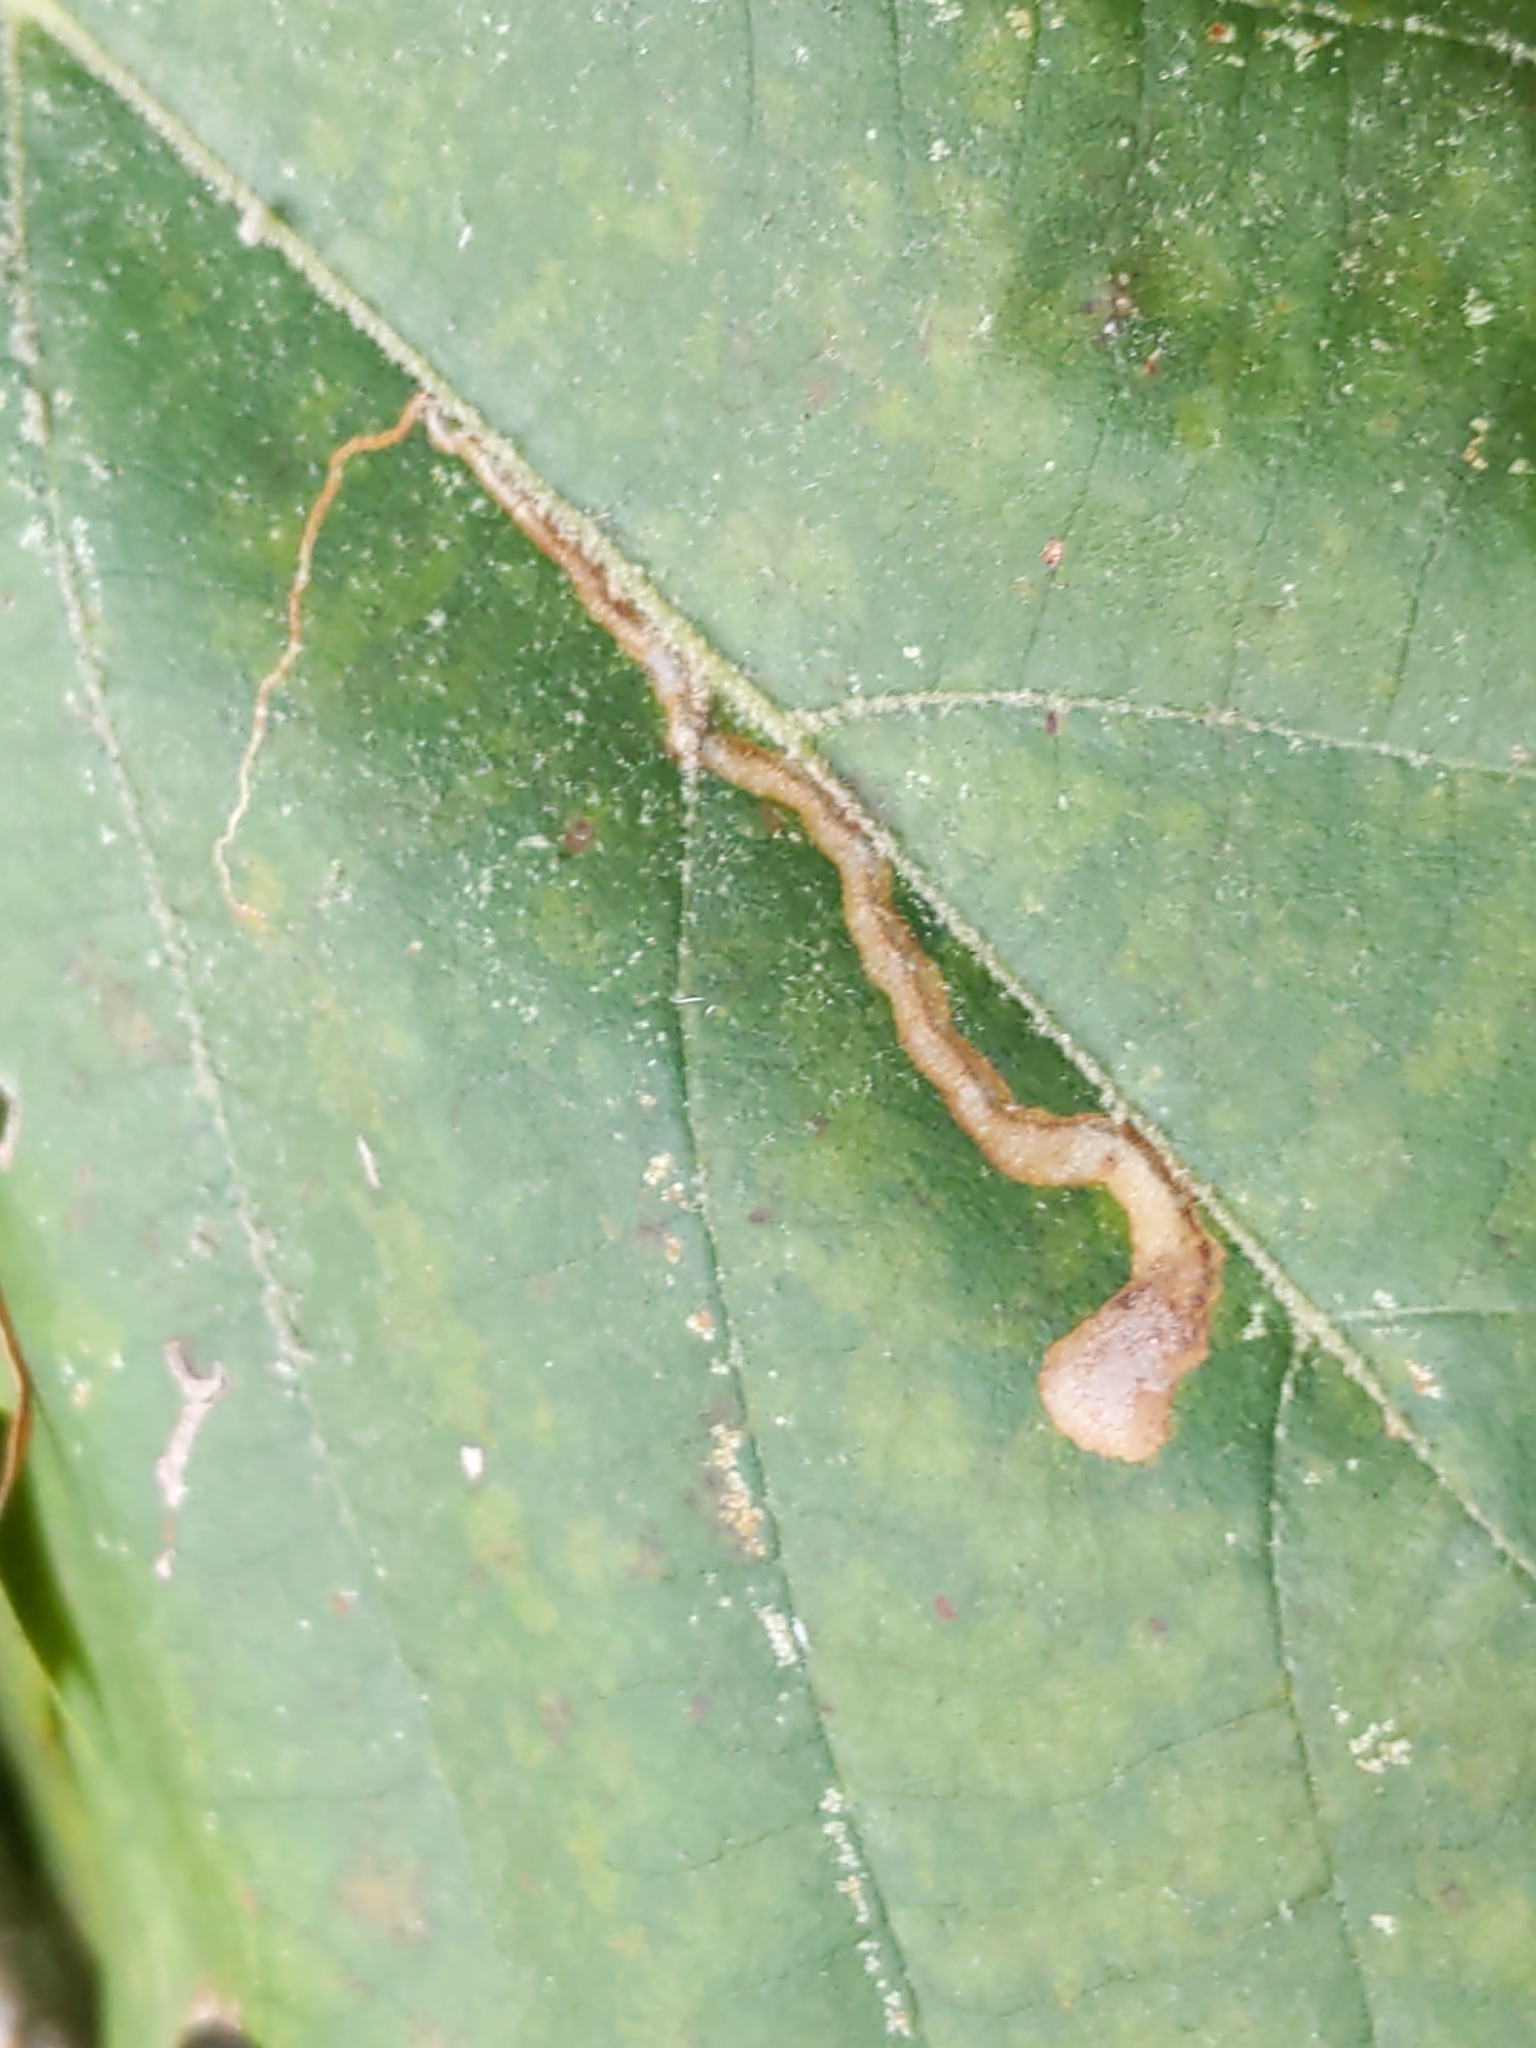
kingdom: Animalia
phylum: Arthropoda
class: Insecta
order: Lepidoptera
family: Nepticulidae
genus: Ectoedemia
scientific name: Ectoedemia clemensella
